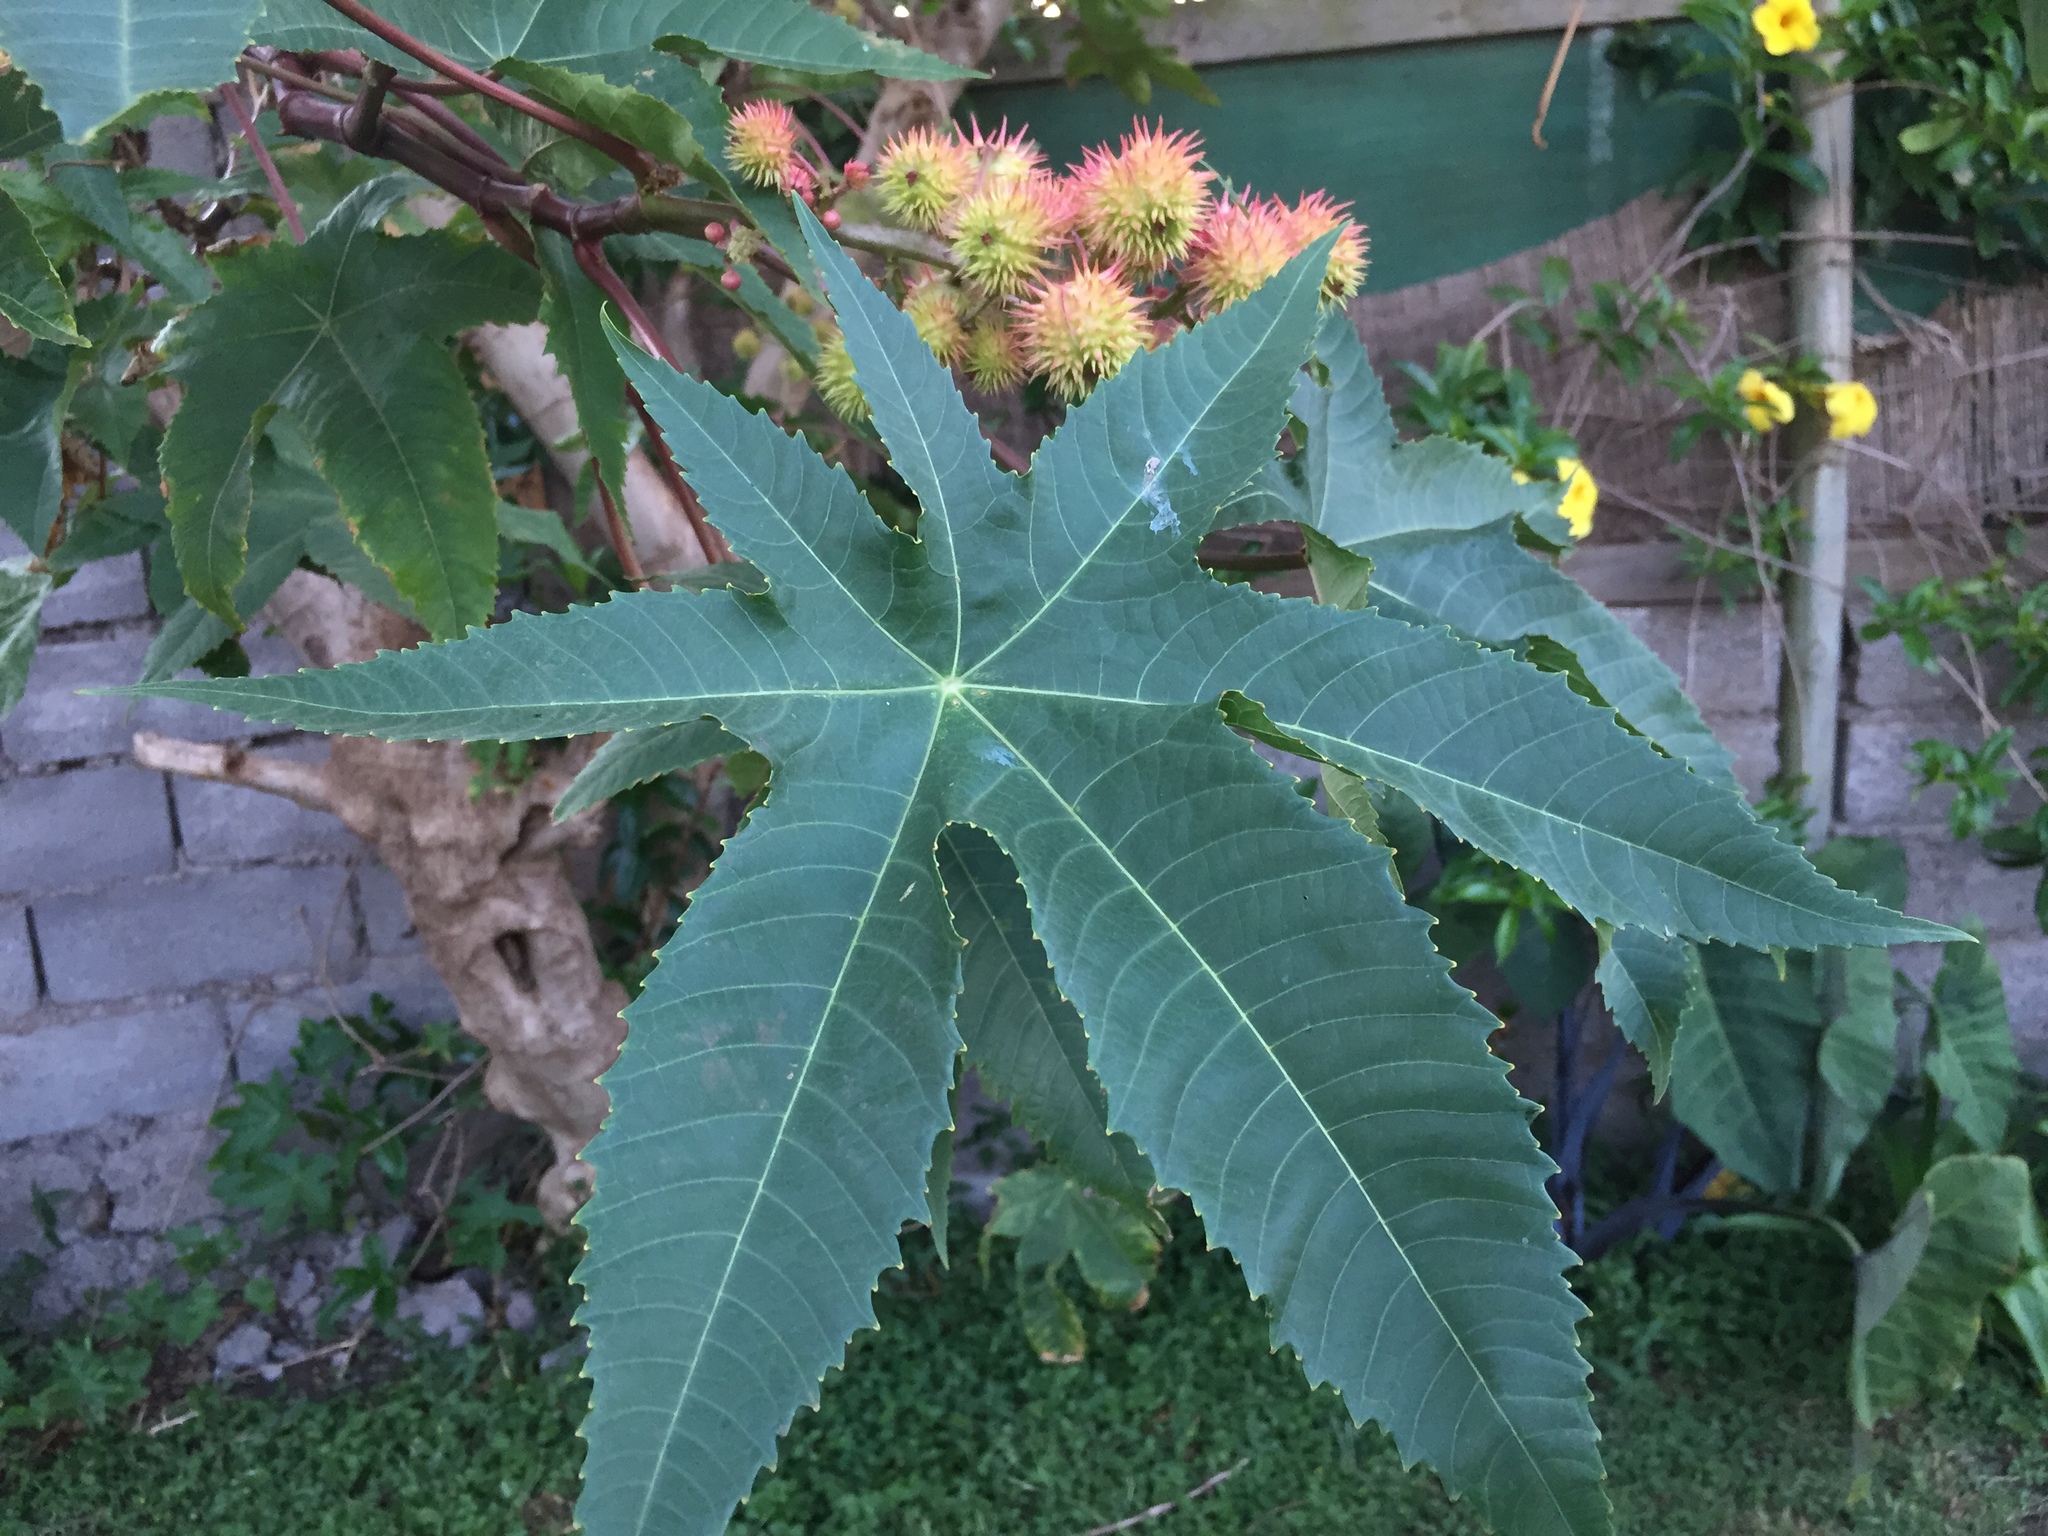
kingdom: Plantae
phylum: Tracheophyta
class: Magnoliopsida
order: Malpighiales
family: Euphorbiaceae
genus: Ricinus
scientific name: Ricinus communis
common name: Castor-oil-plant
